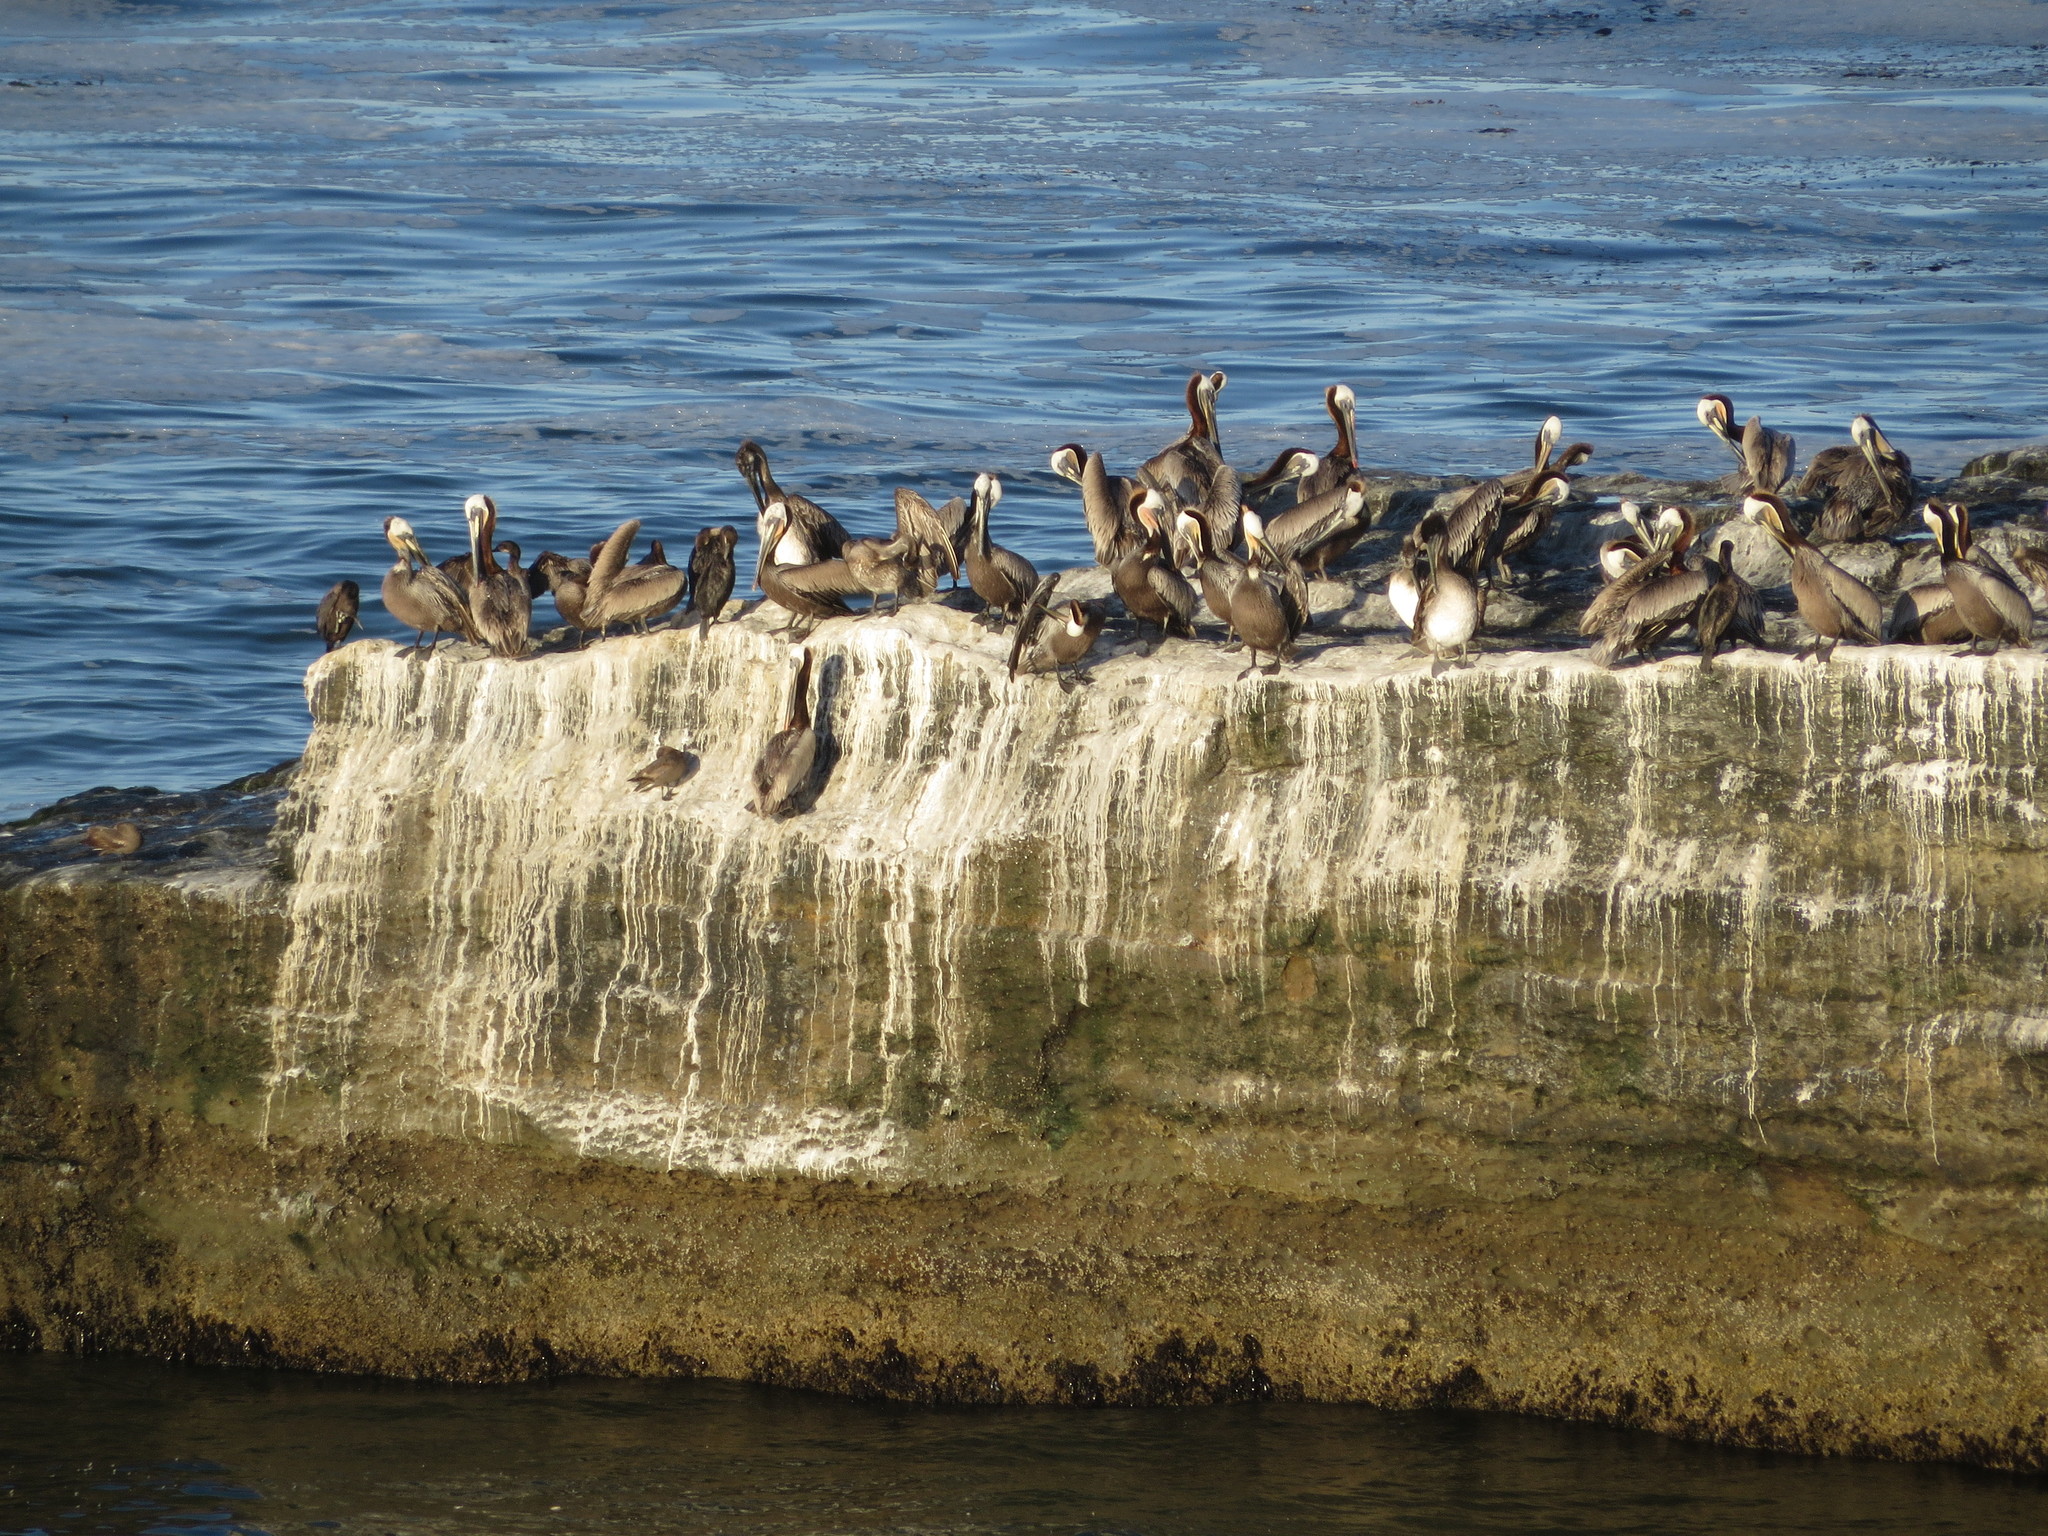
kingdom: Animalia
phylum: Chordata
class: Aves
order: Pelecaniformes
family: Pelecanidae
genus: Pelecanus
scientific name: Pelecanus occidentalis
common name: Brown pelican
